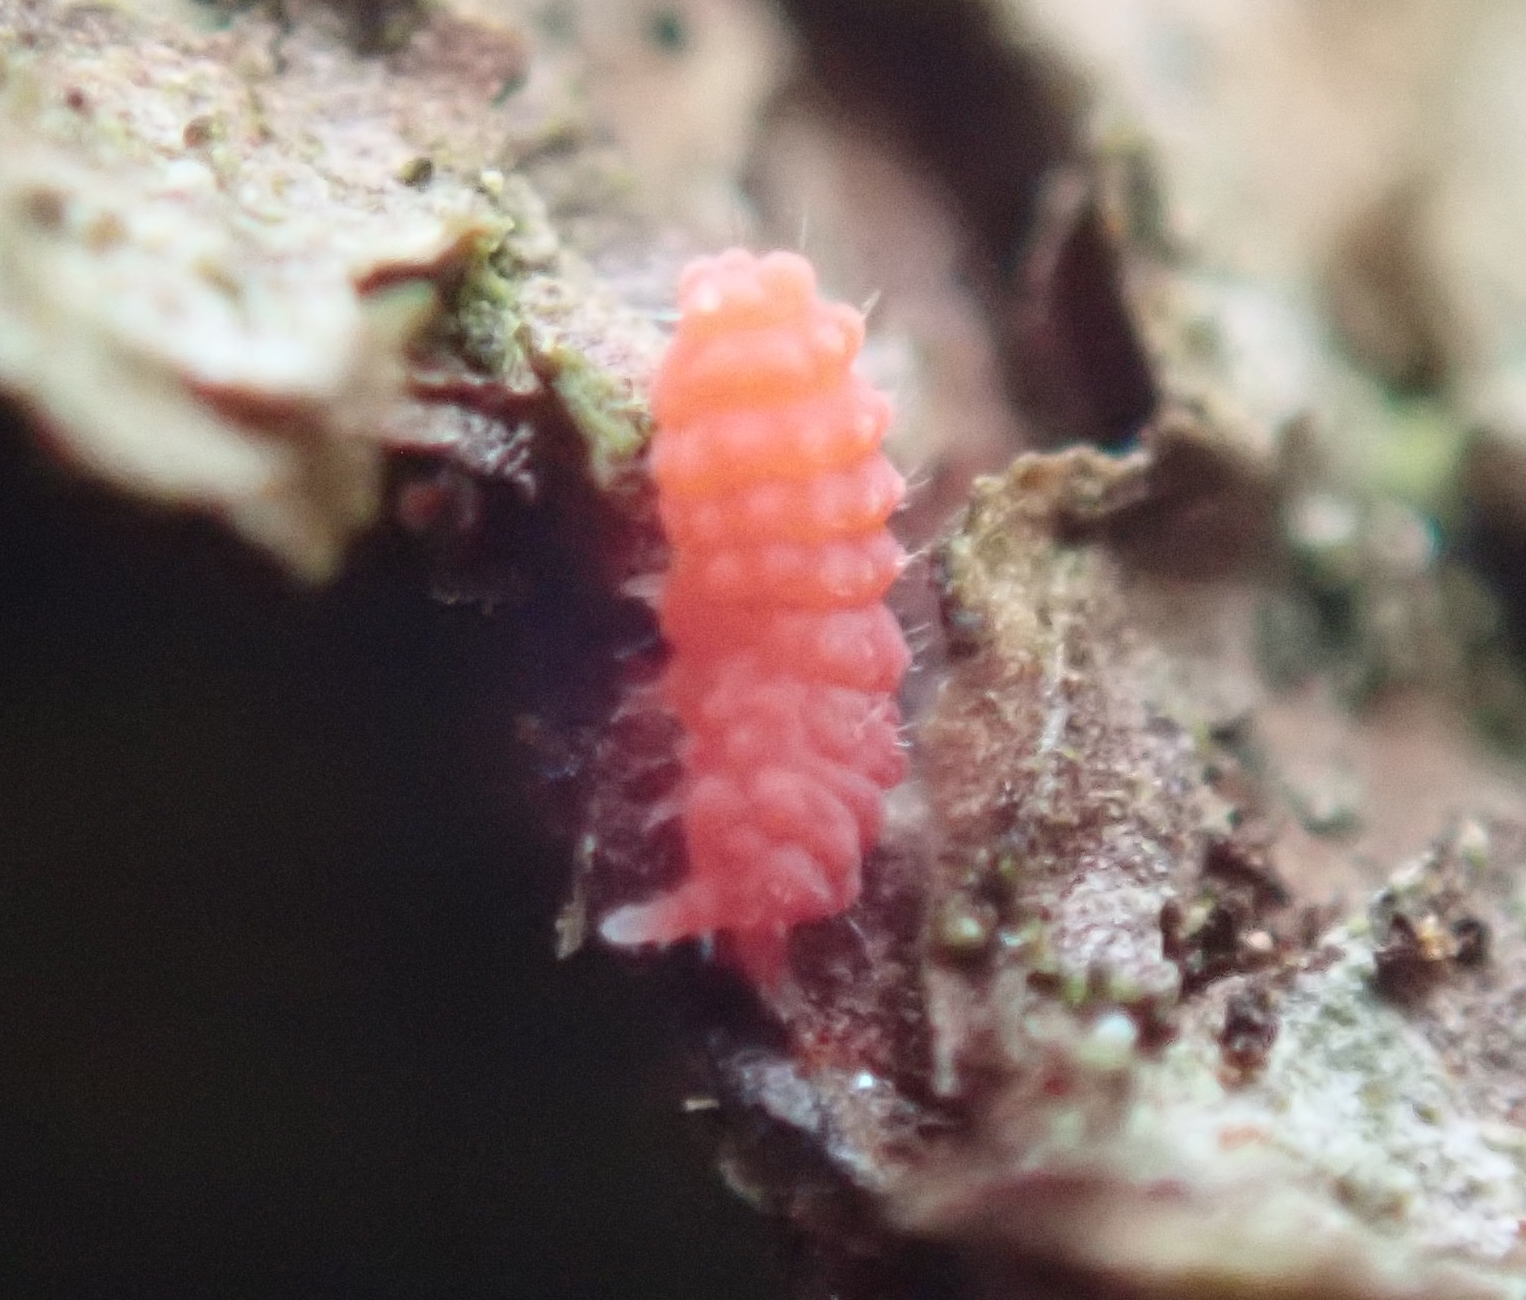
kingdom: Animalia
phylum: Arthropoda
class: Collembola
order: Poduromorpha
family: Neanuridae
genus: Bilobella
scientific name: Bilobella braunerae
